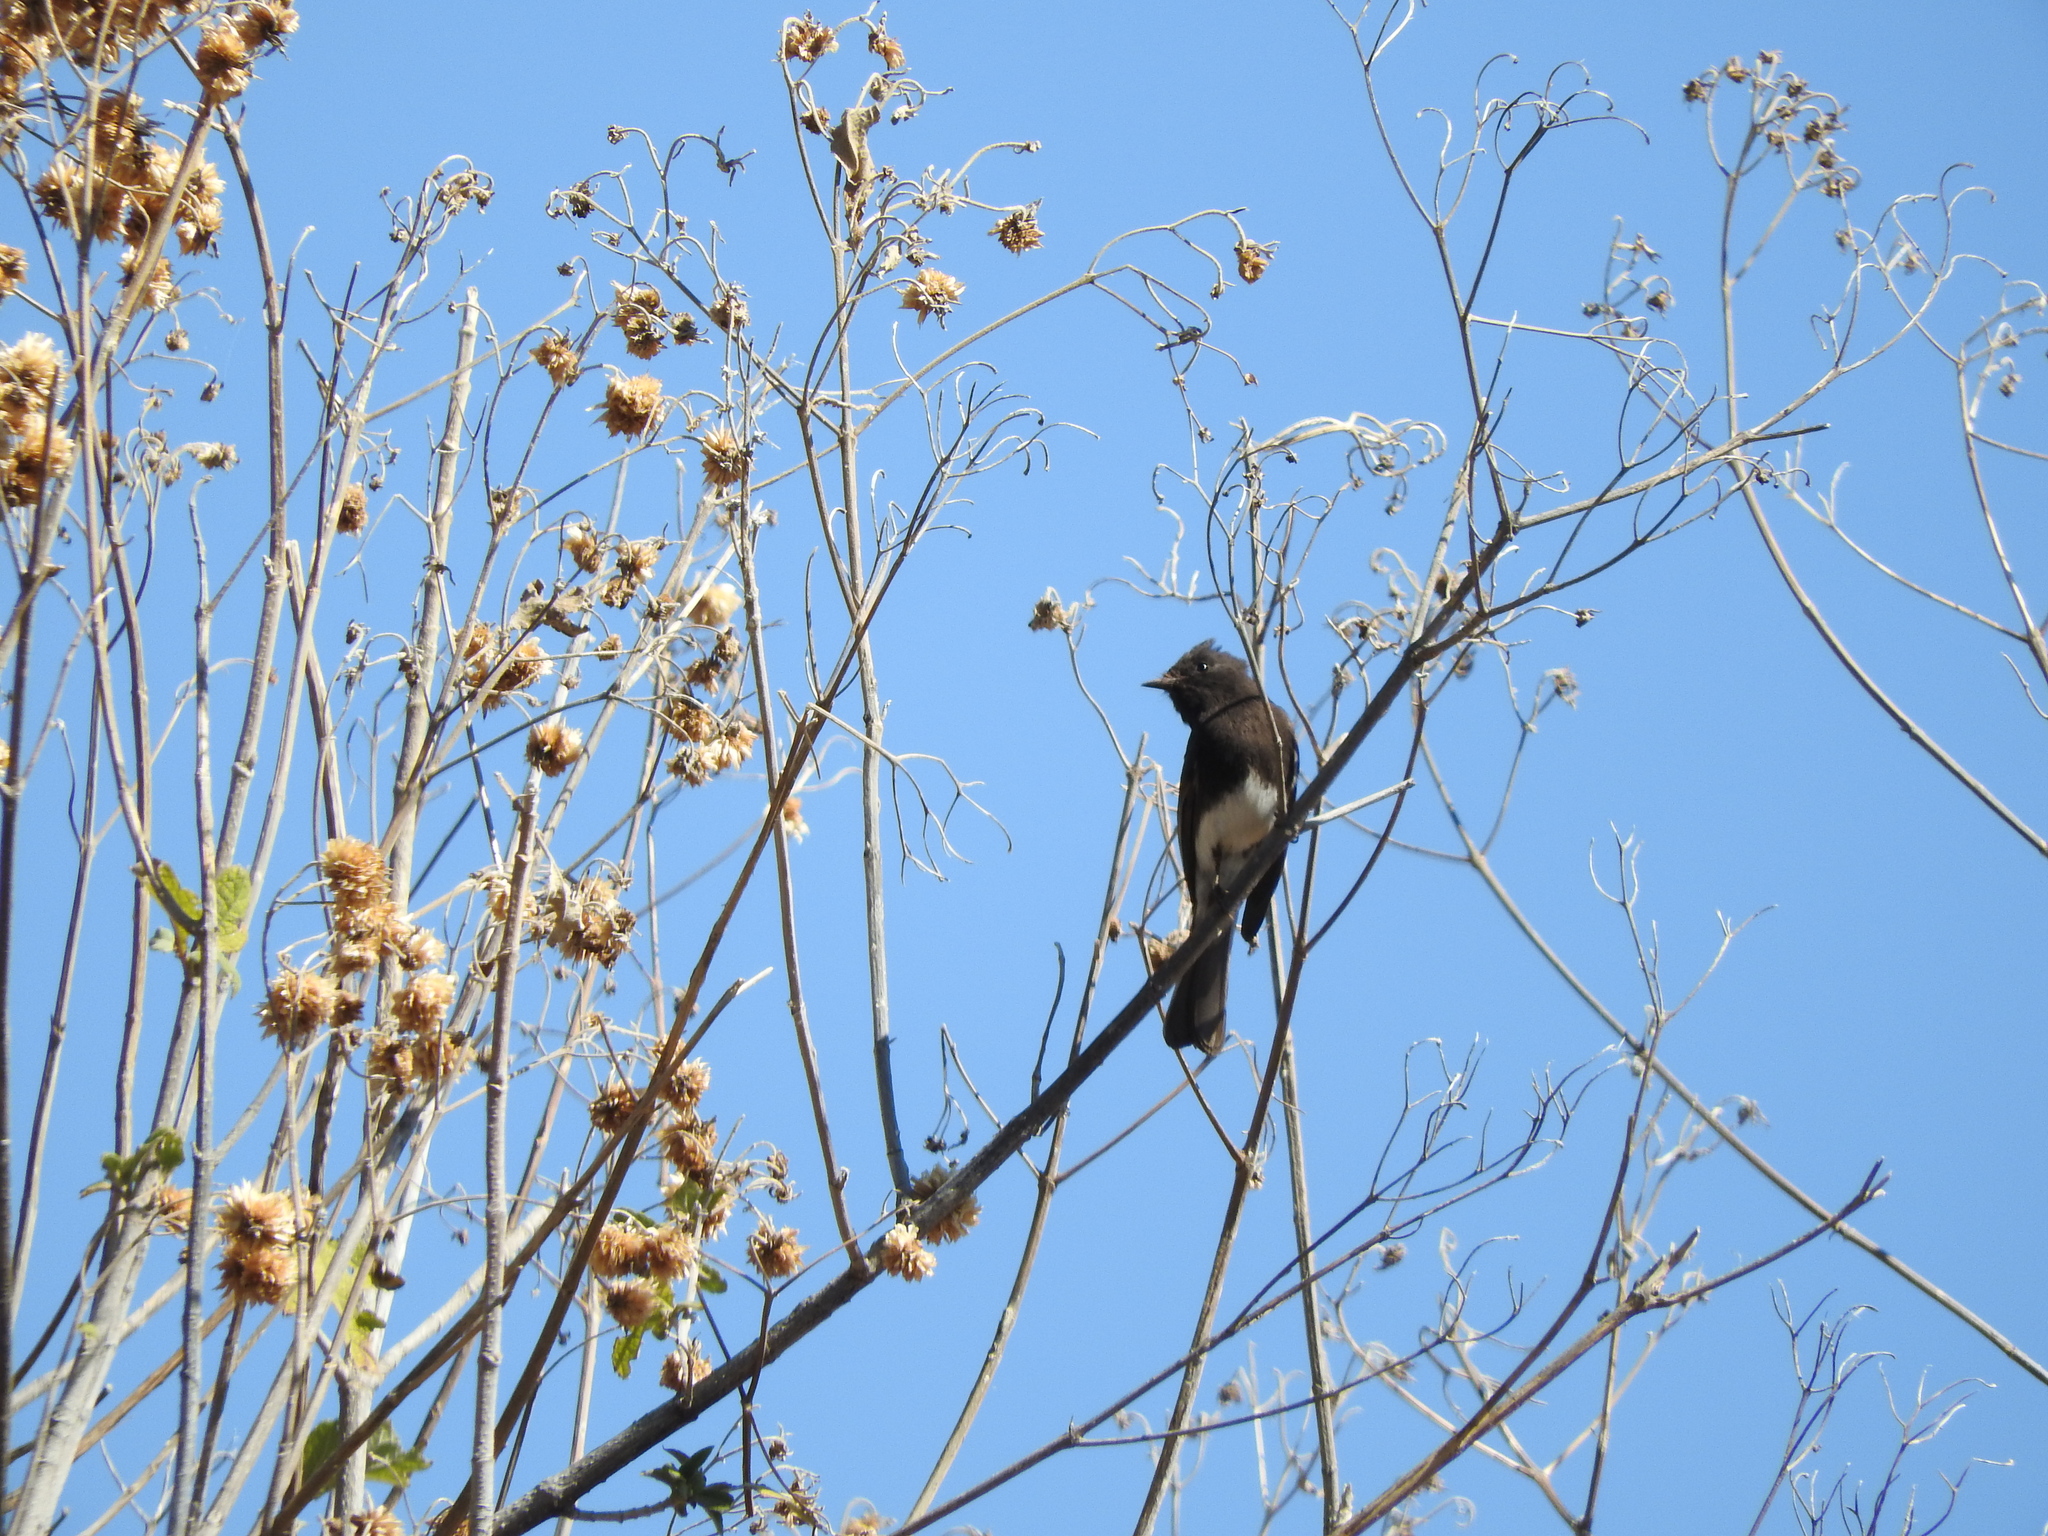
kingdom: Animalia
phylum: Chordata
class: Aves
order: Passeriformes
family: Tyrannidae
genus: Sayornis
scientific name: Sayornis nigricans
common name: Black phoebe
